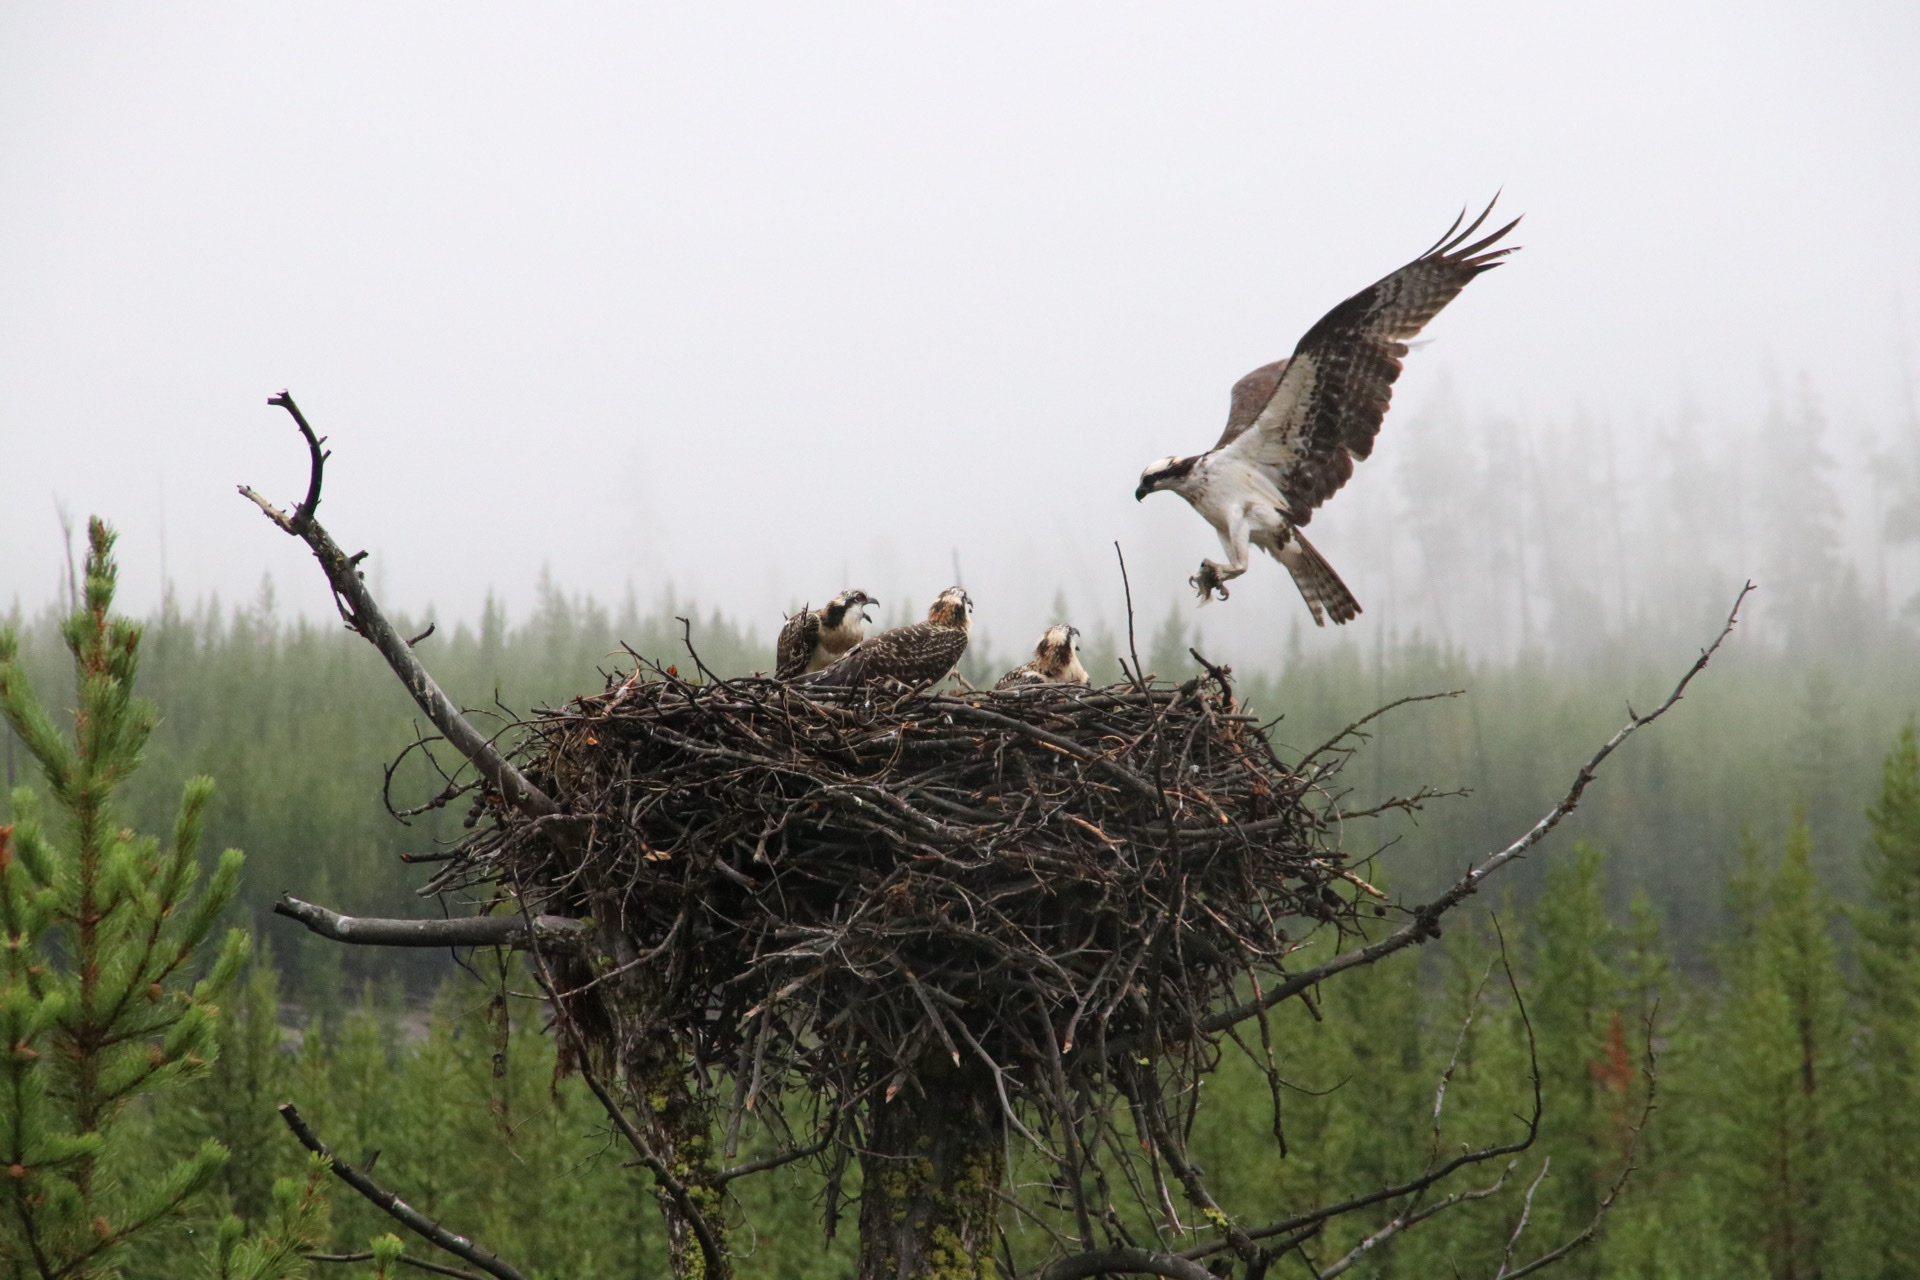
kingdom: Animalia
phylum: Chordata
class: Aves
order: Accipitriformes
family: Pandionidae
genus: Pandion
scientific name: Pandion haliaetus
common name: Osprey
